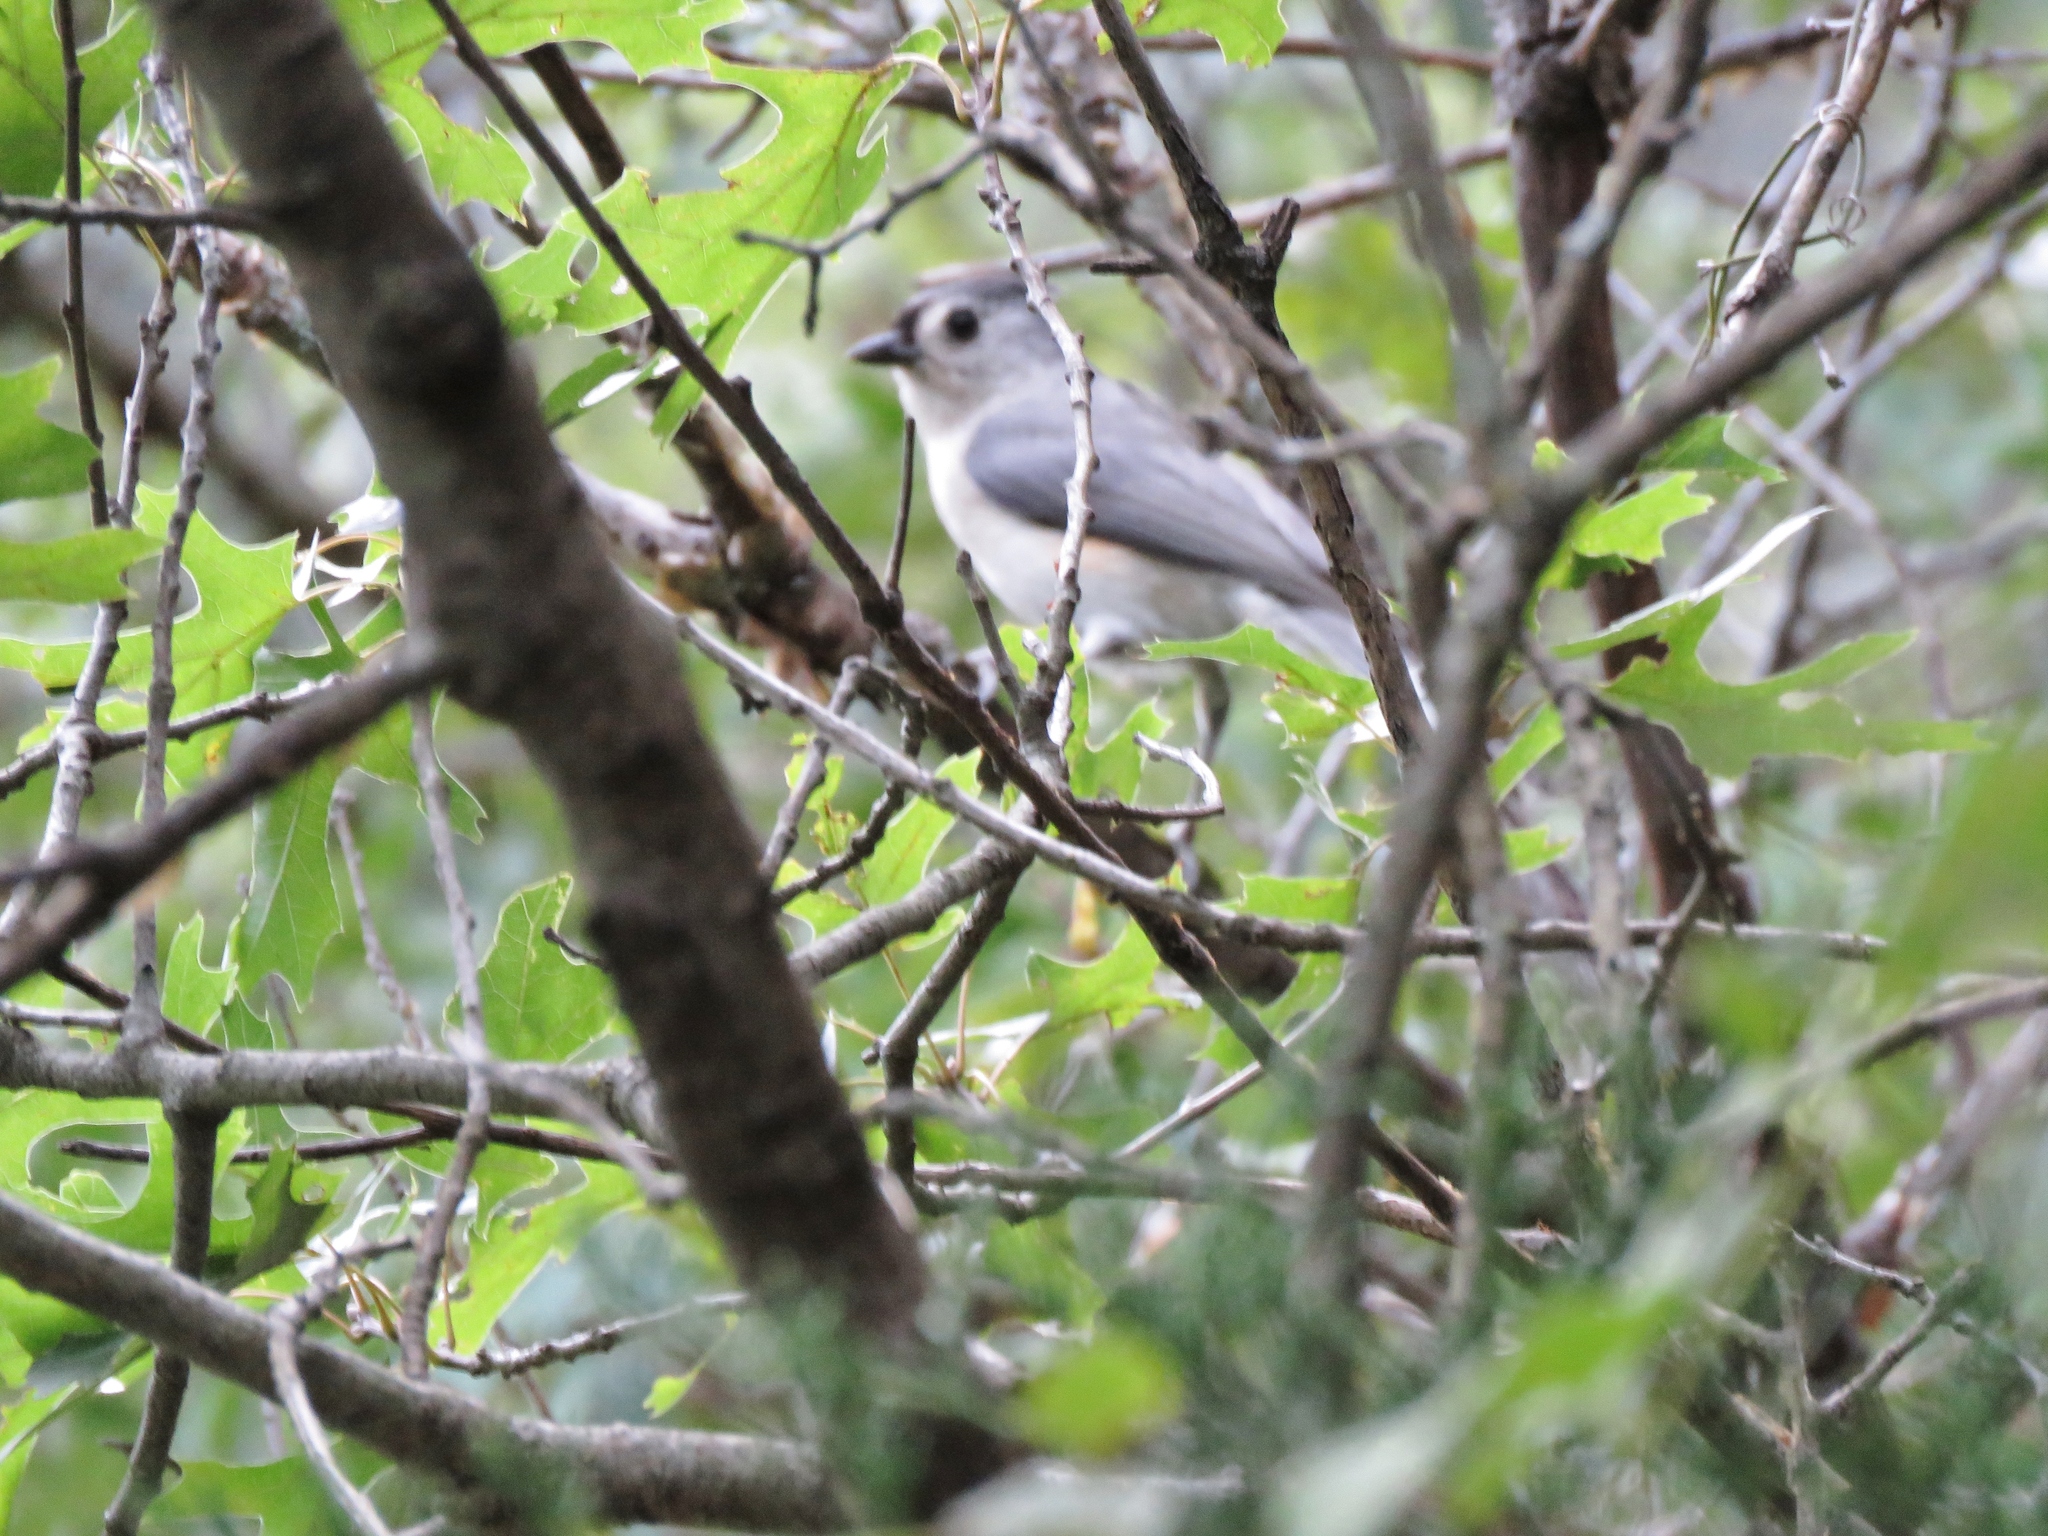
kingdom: Animalia
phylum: Chordata
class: Aves
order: Passeriformes
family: Paridae
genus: Baeolophus
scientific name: Baeolophus bicolor
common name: Tufted titmouse
